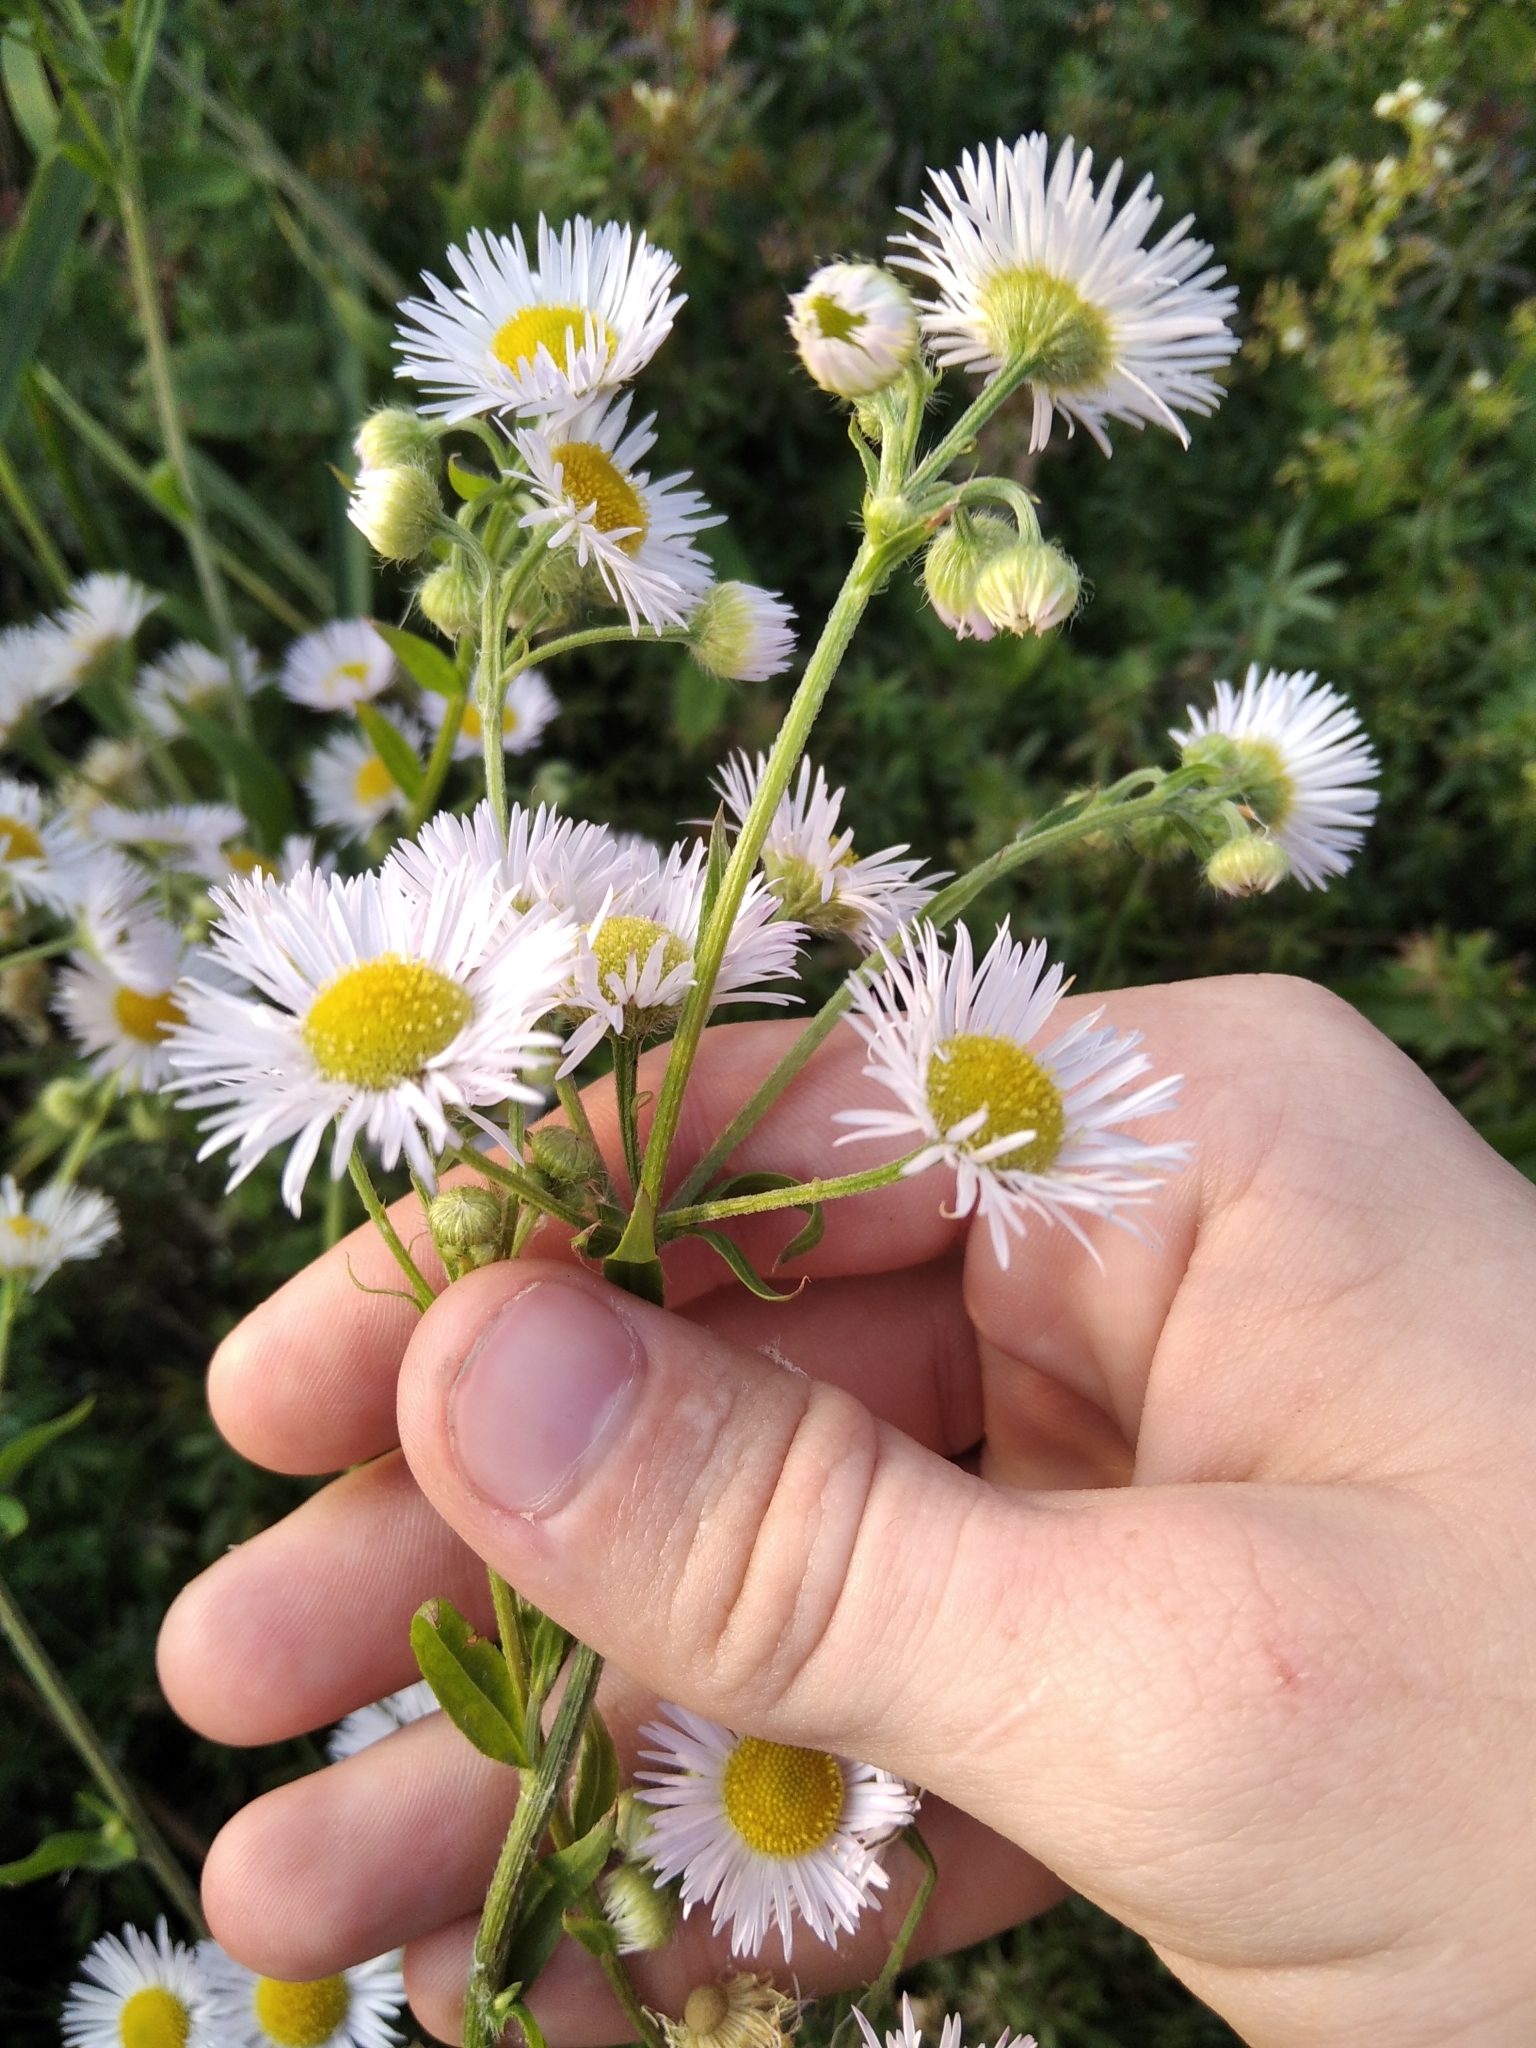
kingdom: Plantae
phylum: Tracheophyta
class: Magnoliopsida
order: Asterales
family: Asteraceae
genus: Erigeron
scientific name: Erigeron annuus
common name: Tall fleabane
